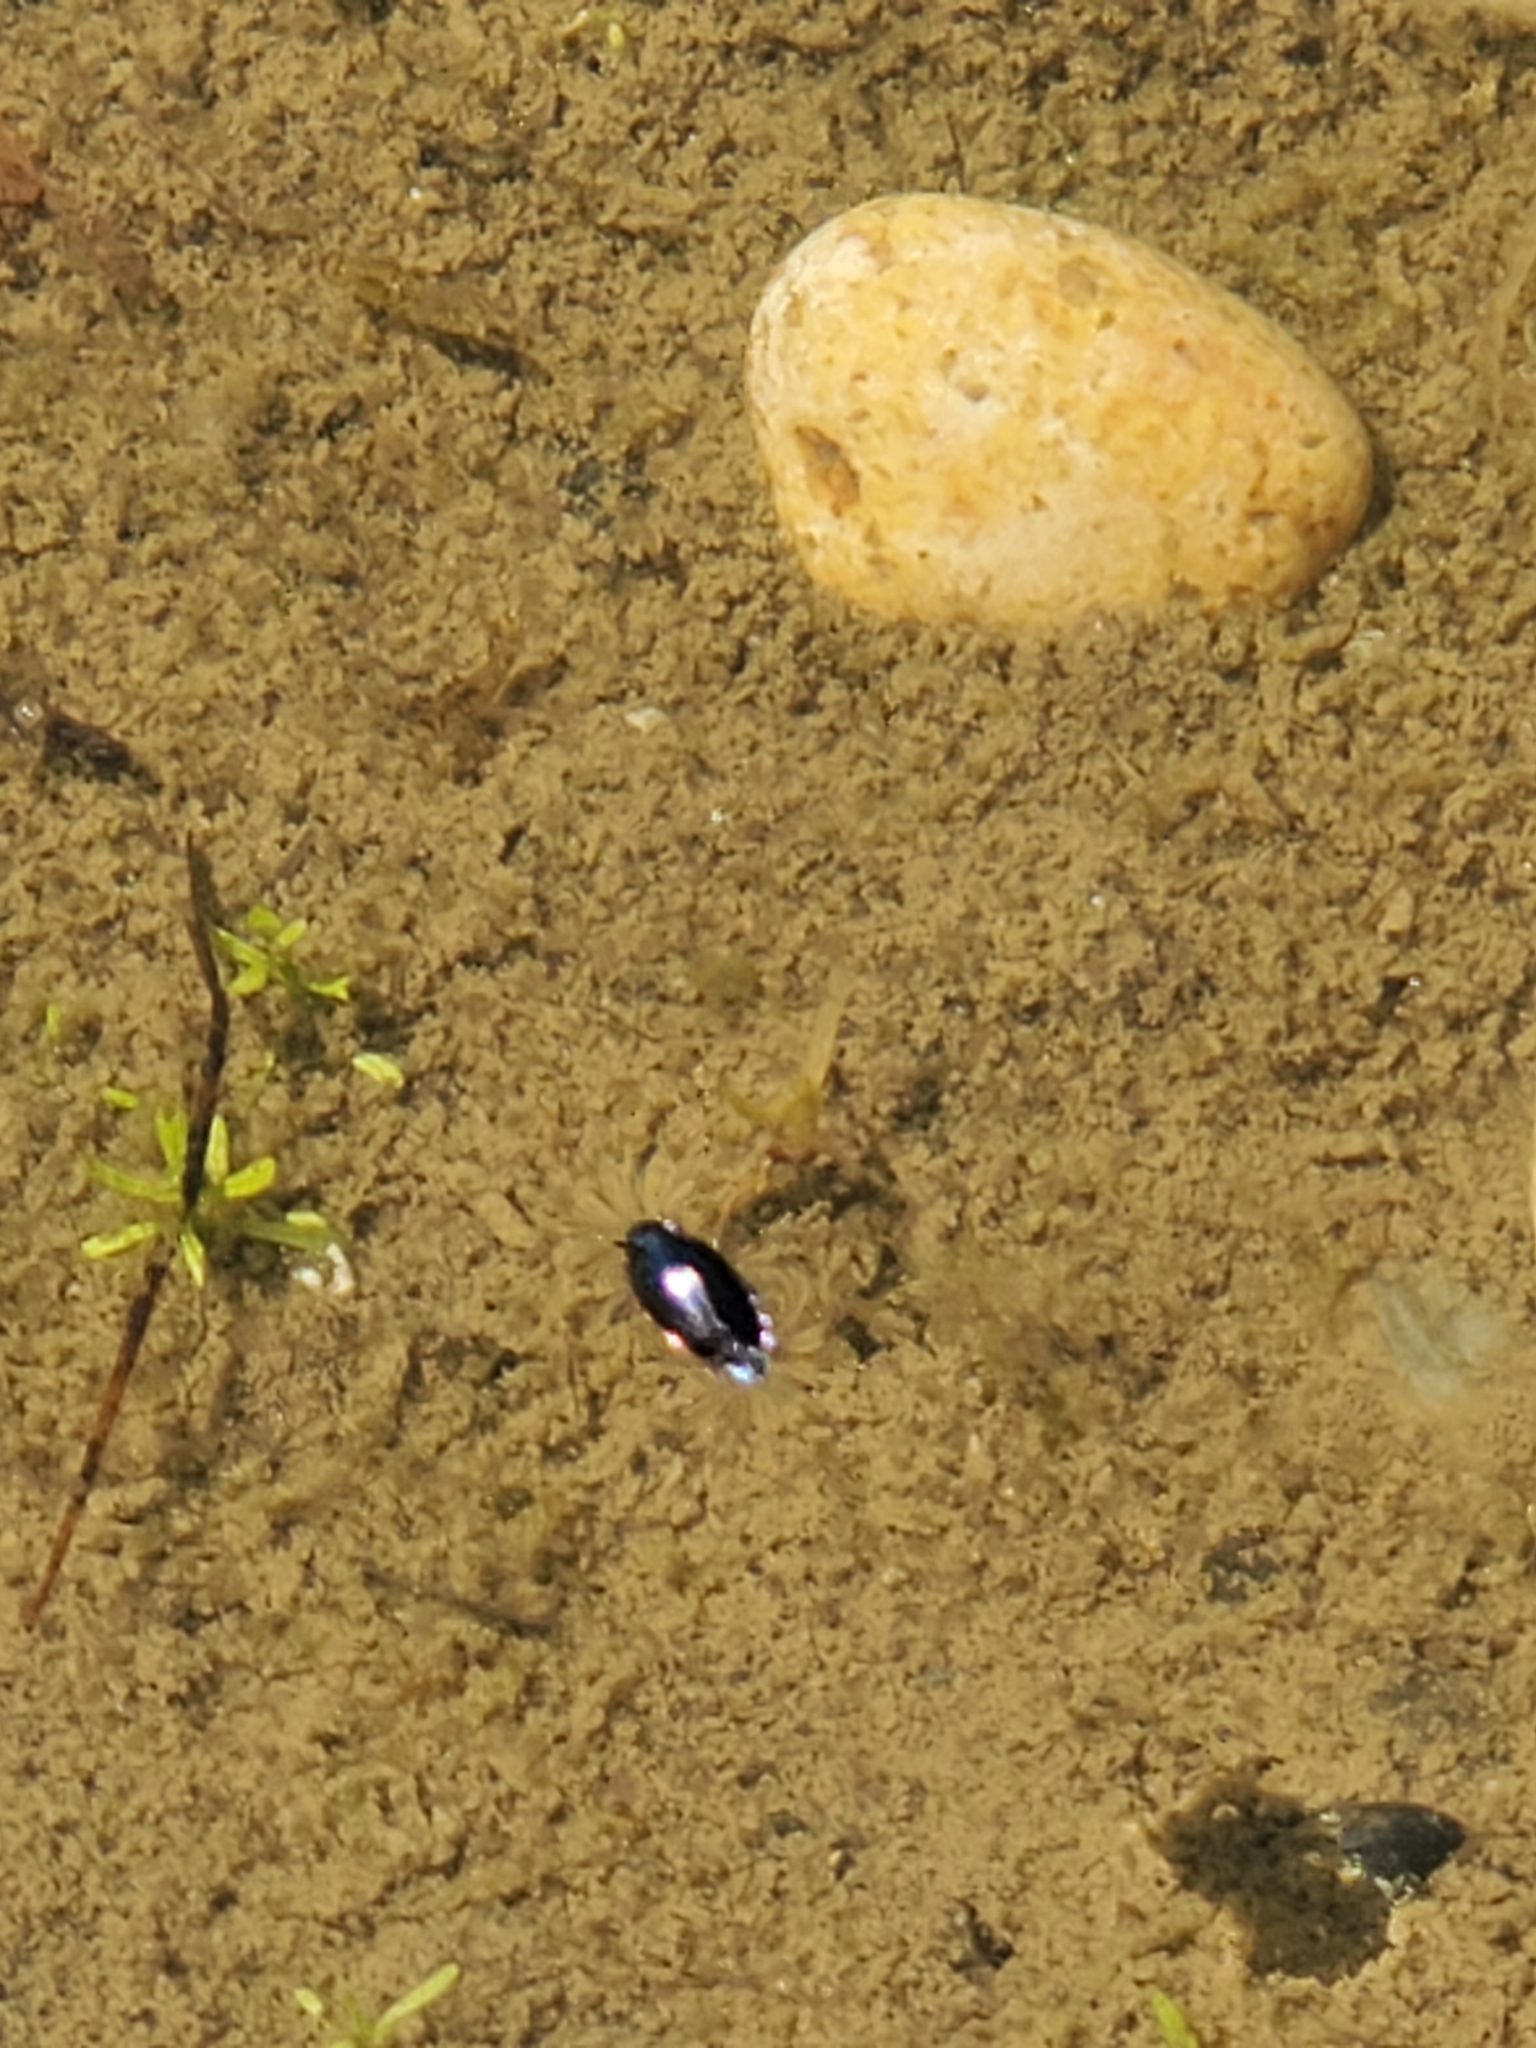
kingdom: Animalia
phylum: Arthropoda
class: Insecta
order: Coleoptera
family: Gyrinidae
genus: Gyrinus
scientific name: Gyrinus
